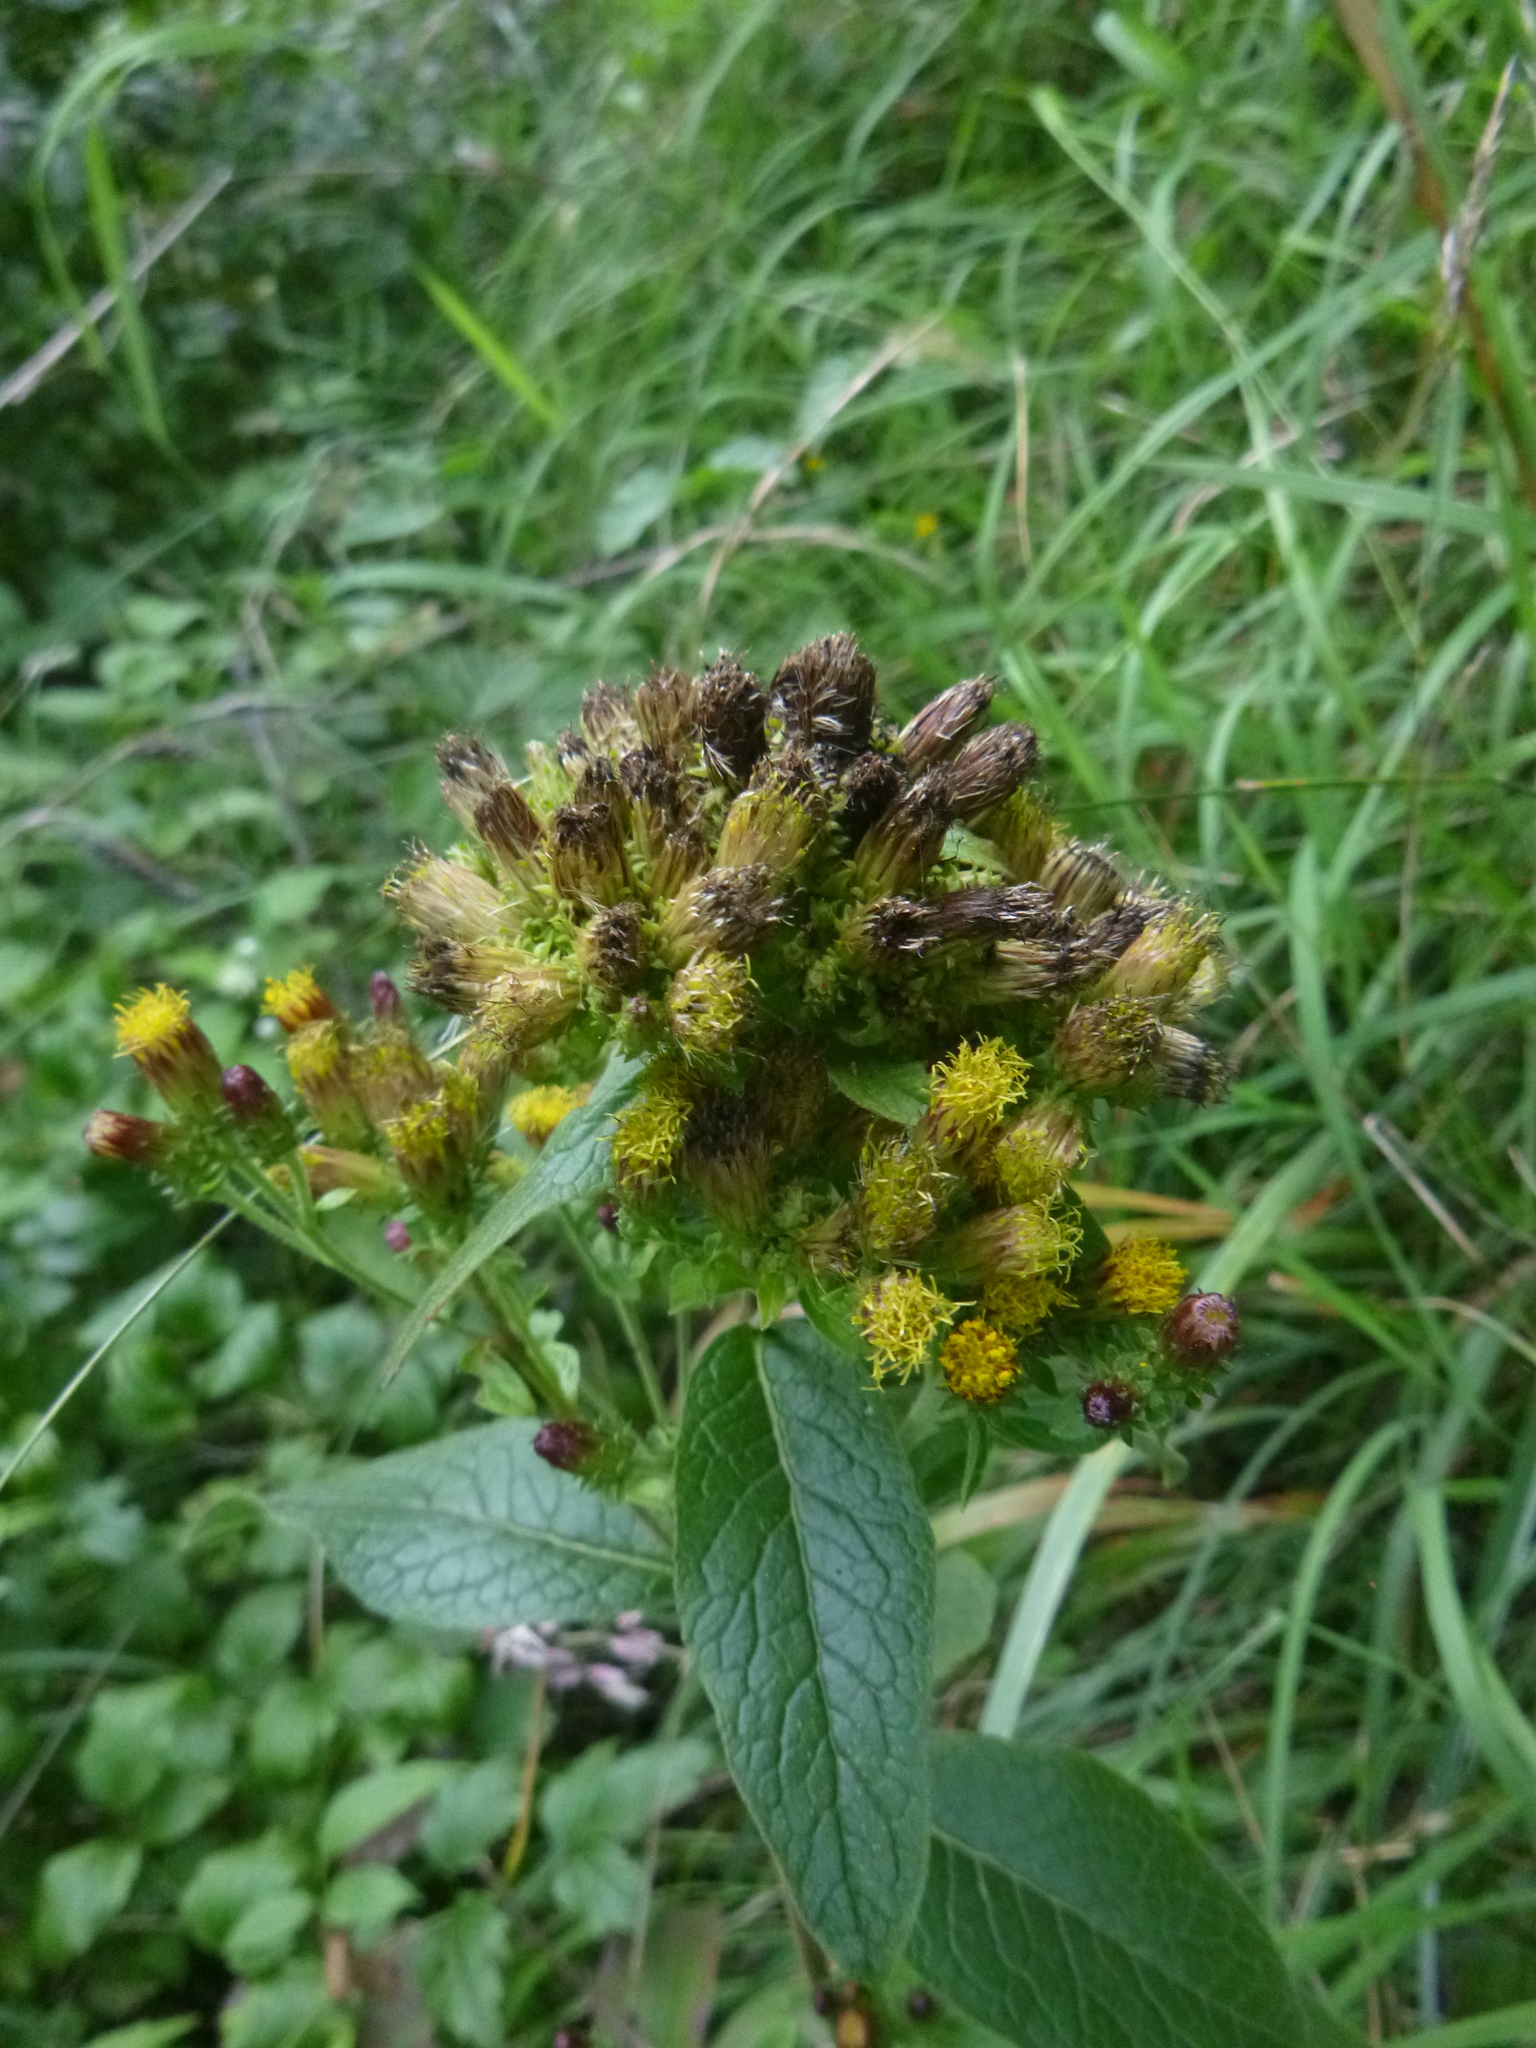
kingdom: Plantae
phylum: Tracheophyta
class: Magnoliopsida
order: Asterales
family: Asteraceae
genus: Pentanema
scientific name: Pentanema squarrosum
